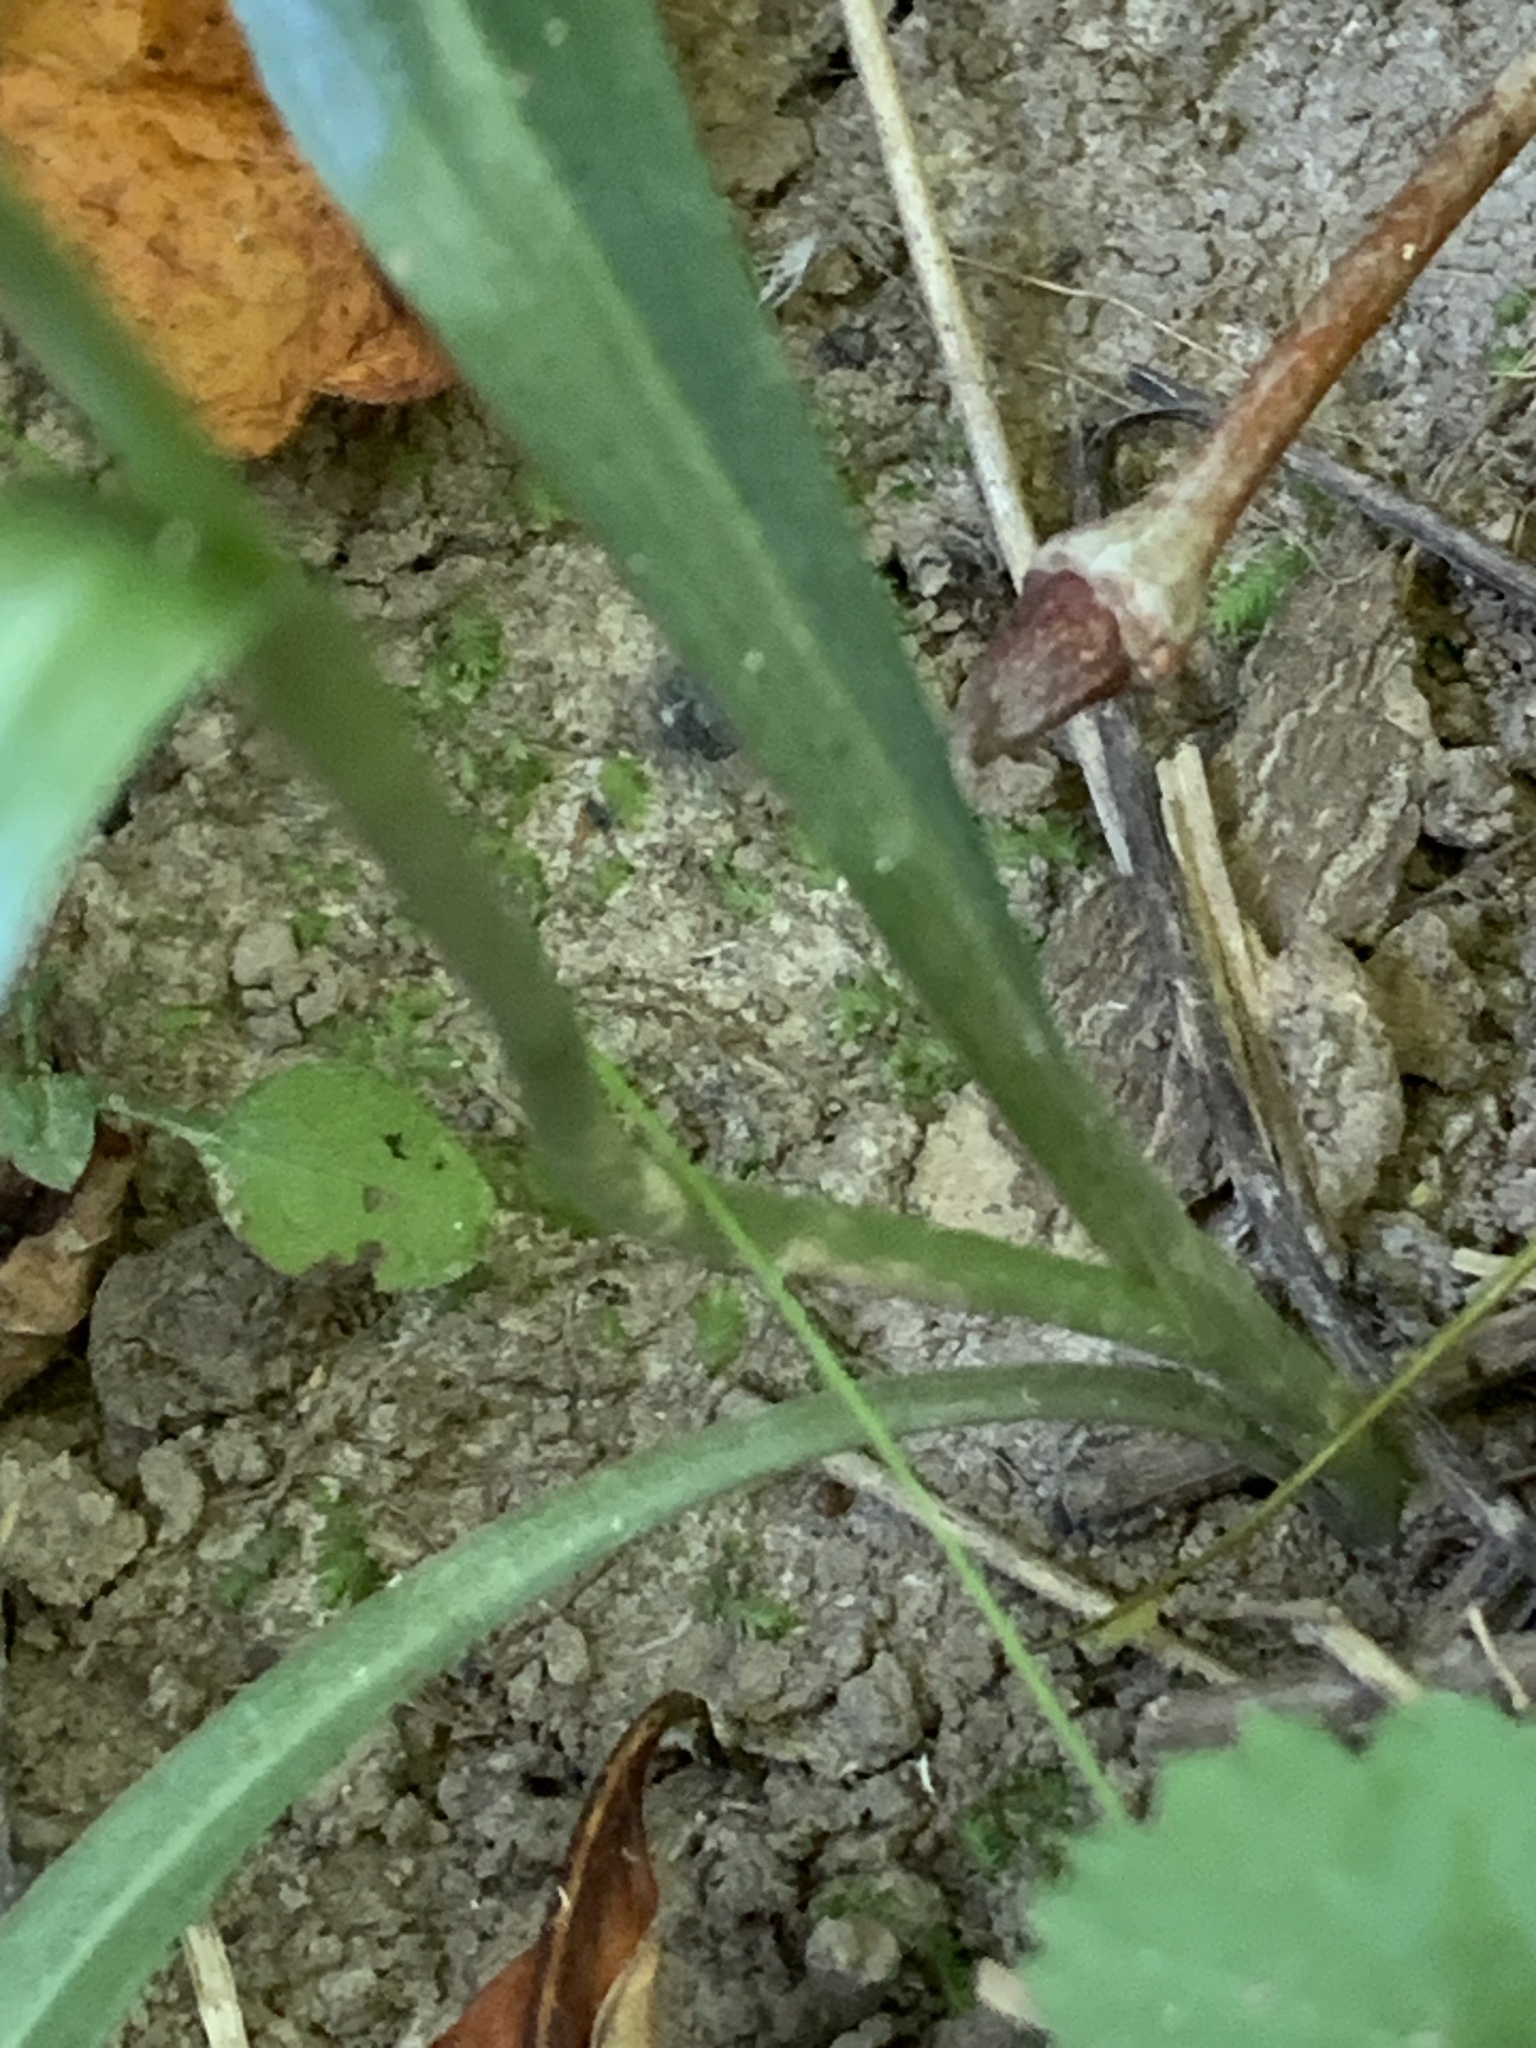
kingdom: Plantae
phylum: Tracheophyta
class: Liliopsida
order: Asparagales
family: Orchidaceae
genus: Spiranthes
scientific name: Spiranthes ovalis
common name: October ladies'-tresses
